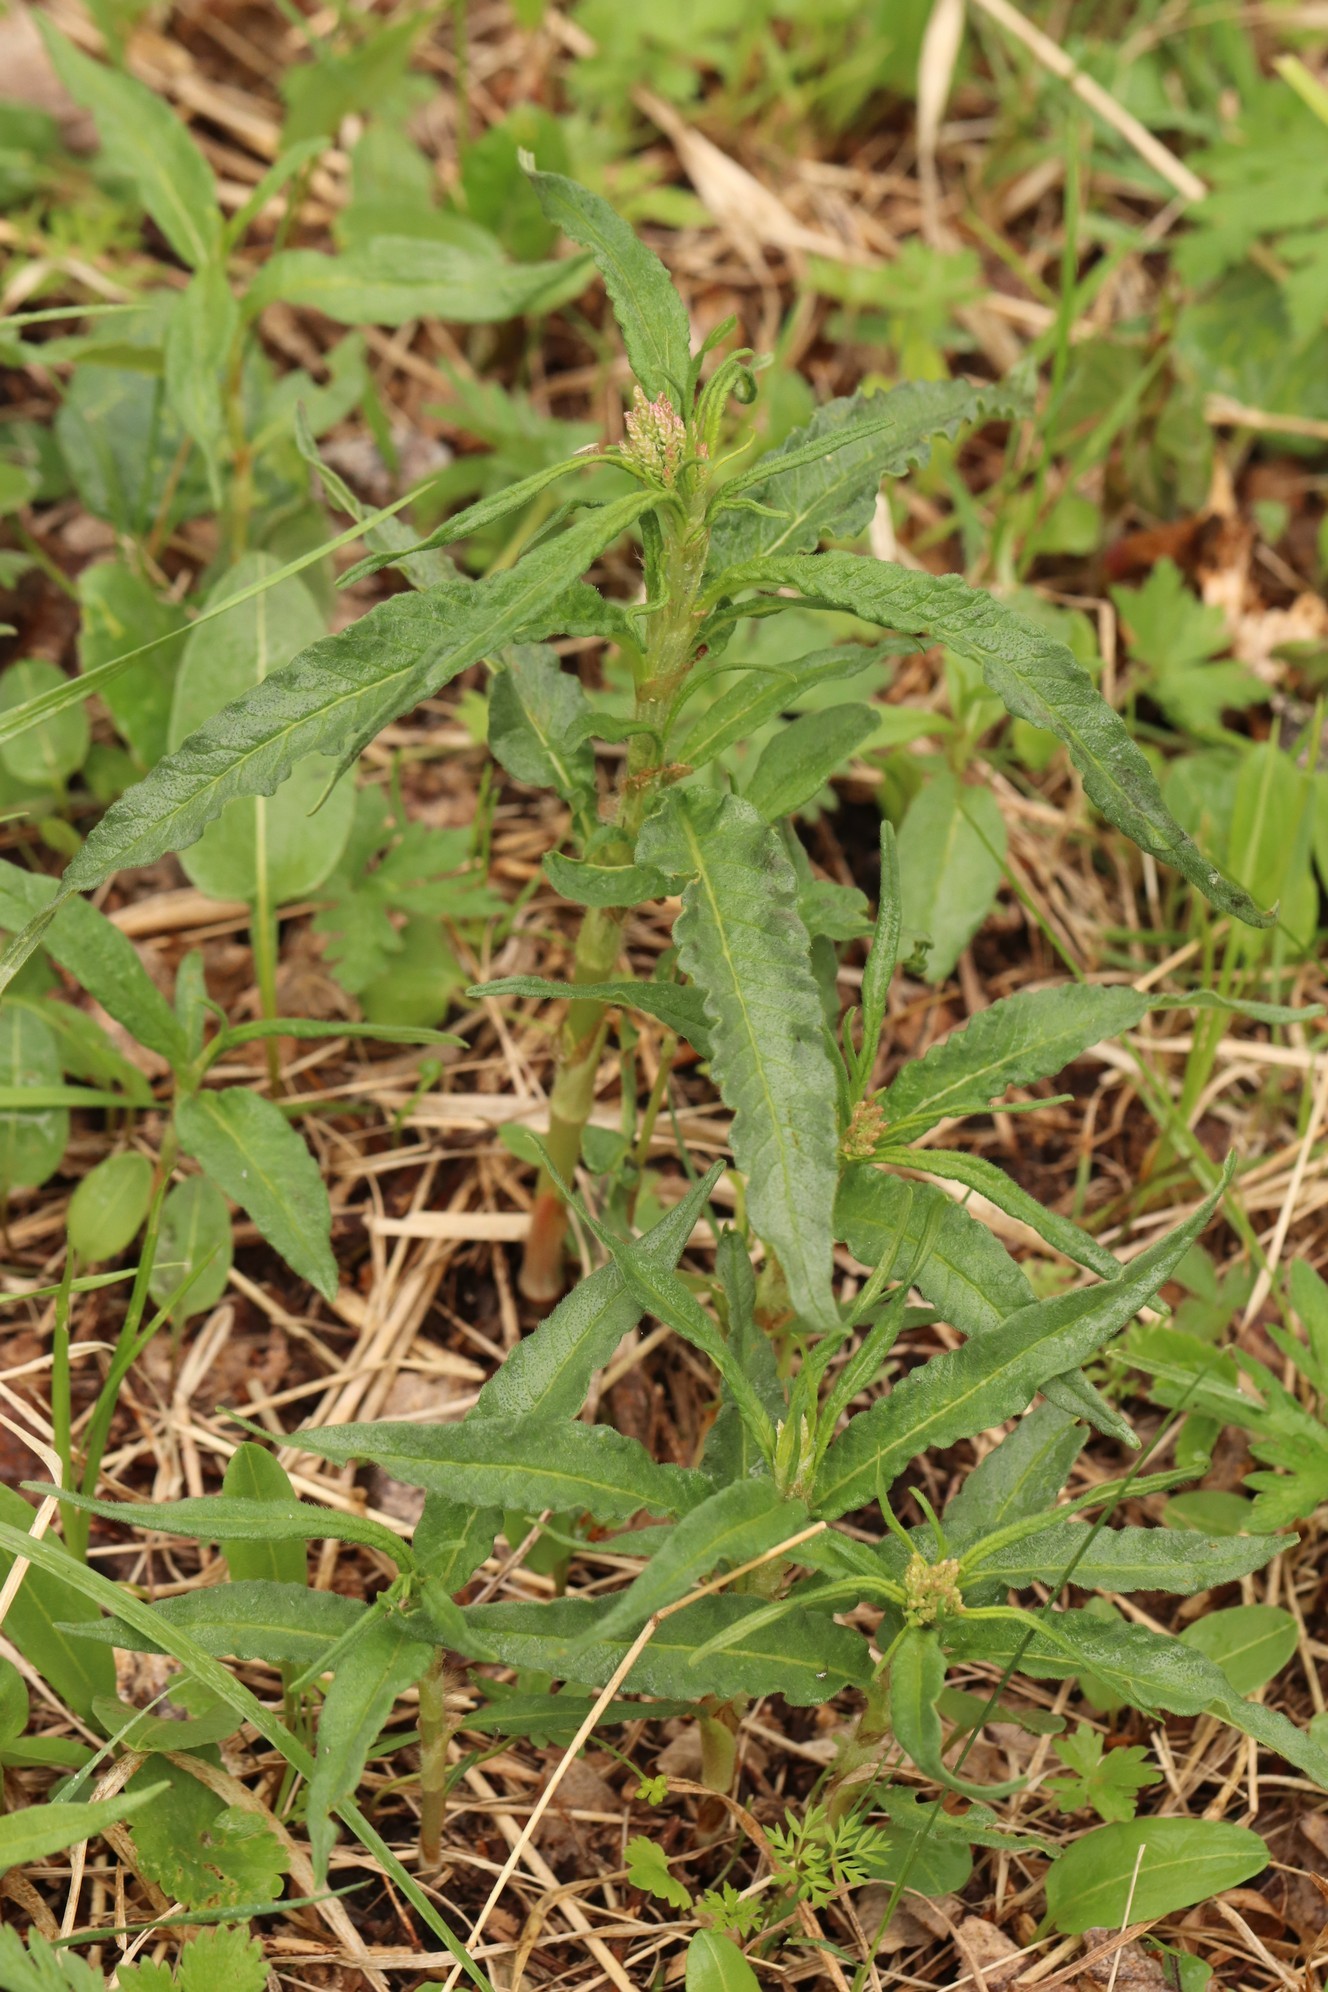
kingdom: Plantae
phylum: Tracheophyta
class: Magnoliopsida
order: Caryophyllales
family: Polygonaceae
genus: Koenigia
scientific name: Koenigia alpina
